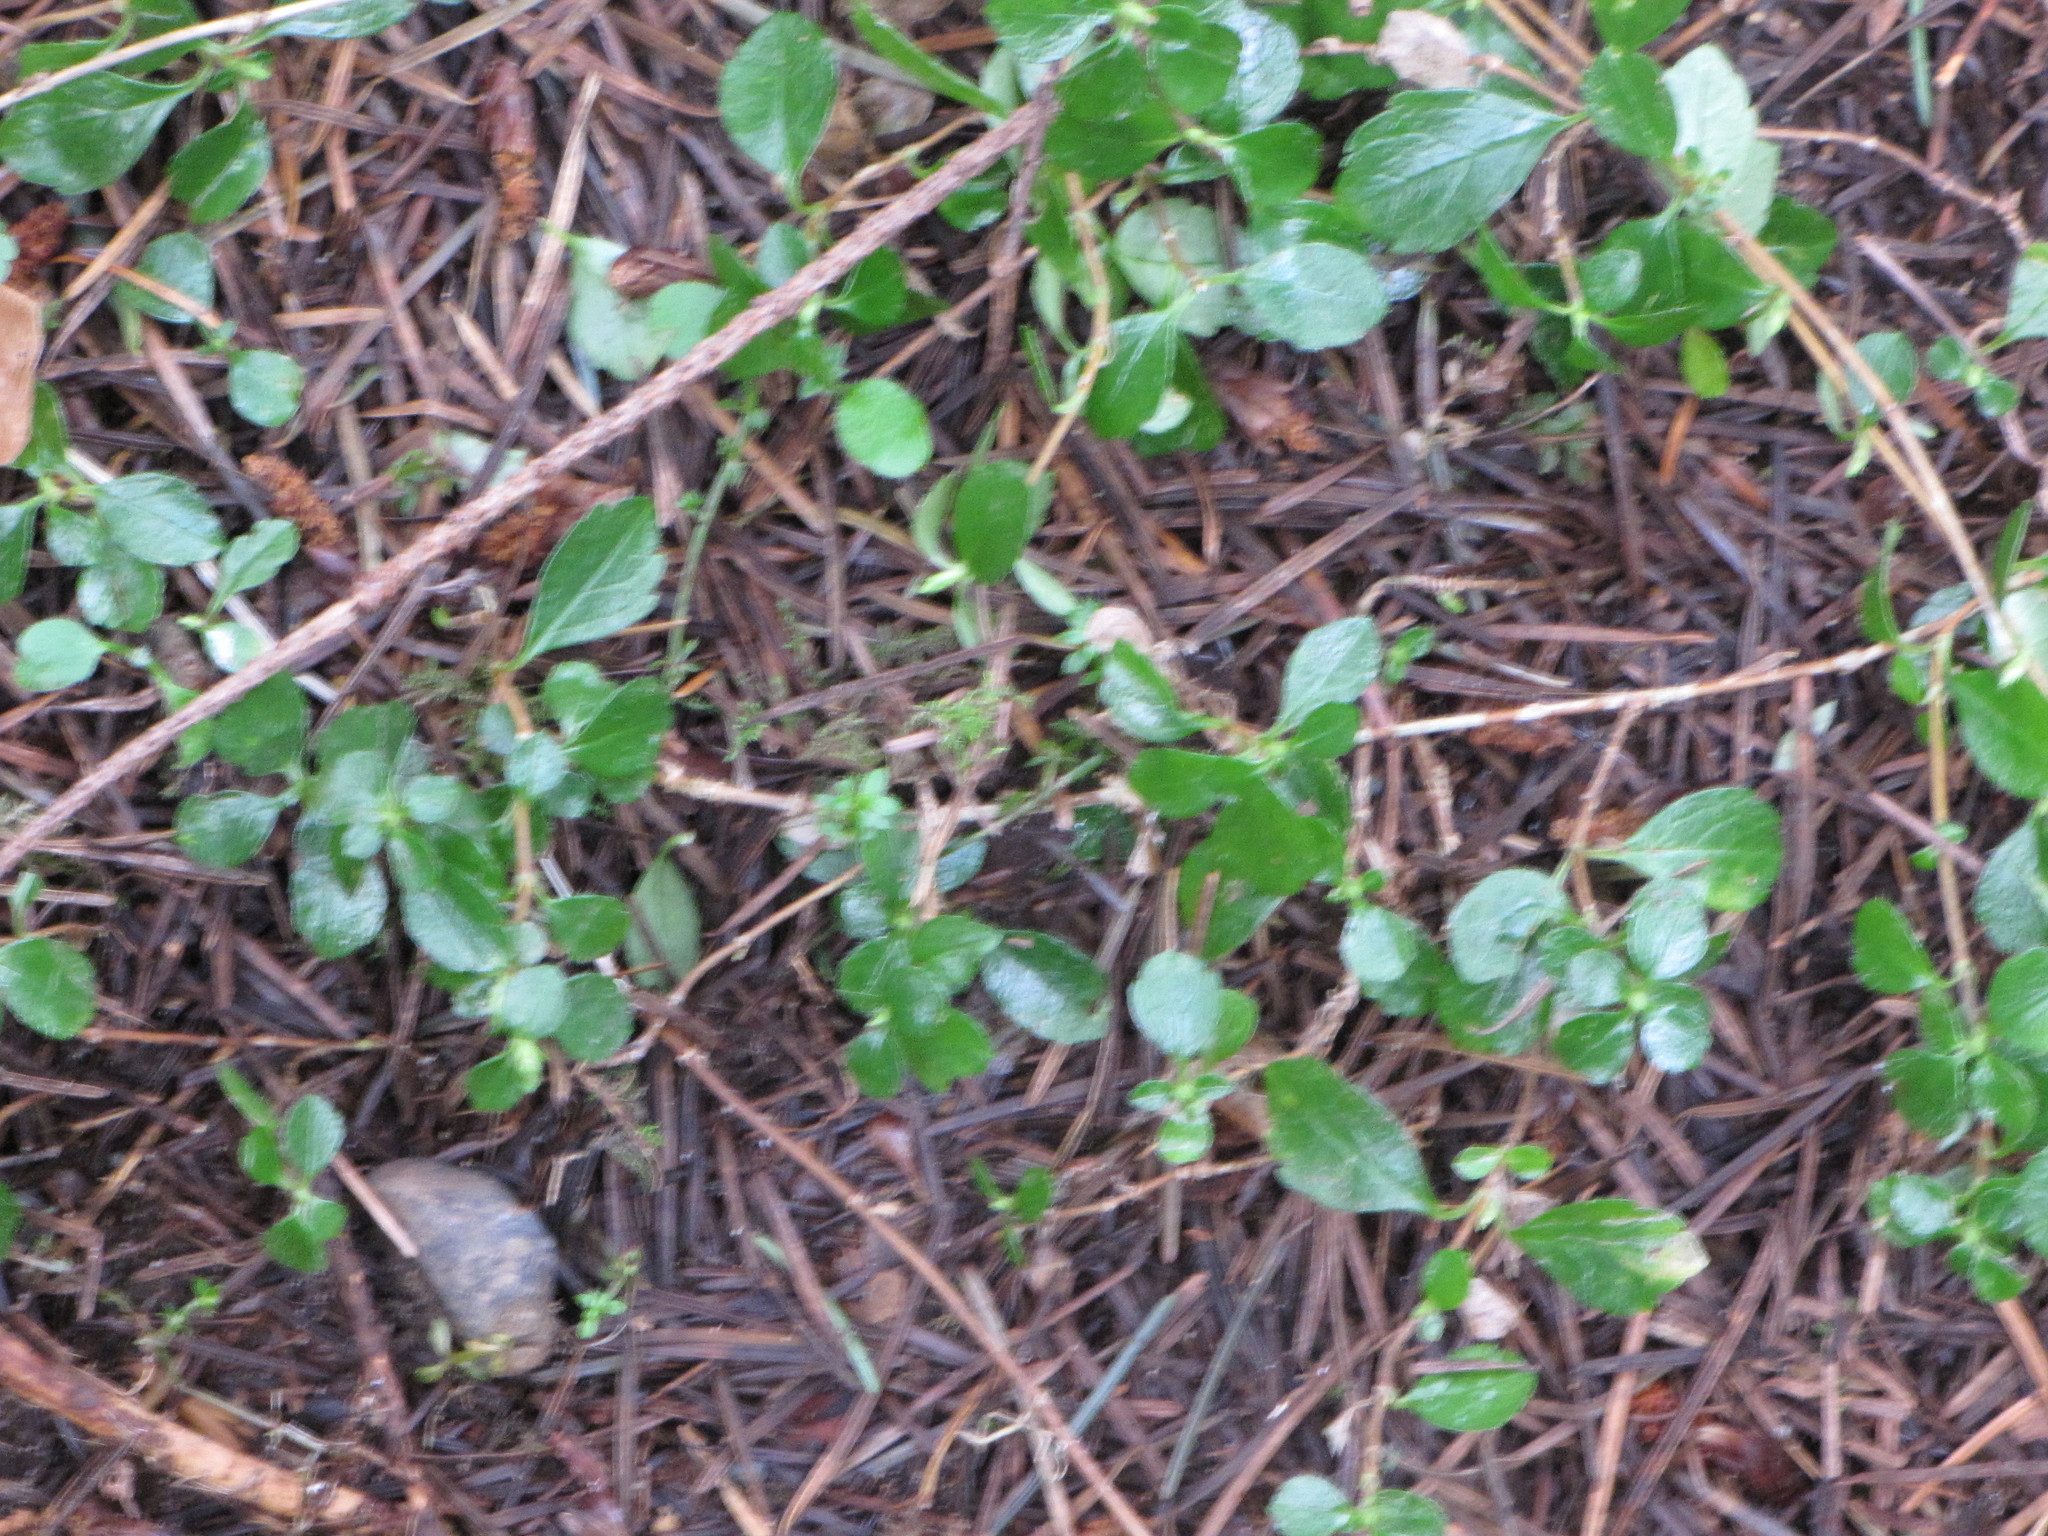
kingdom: Plantae
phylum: Tracheophyta
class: Magnoliopsida
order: Dipsacales
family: Caprifoliaceae
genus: Linnaea
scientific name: Linnaea borealis
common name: Twinflower
